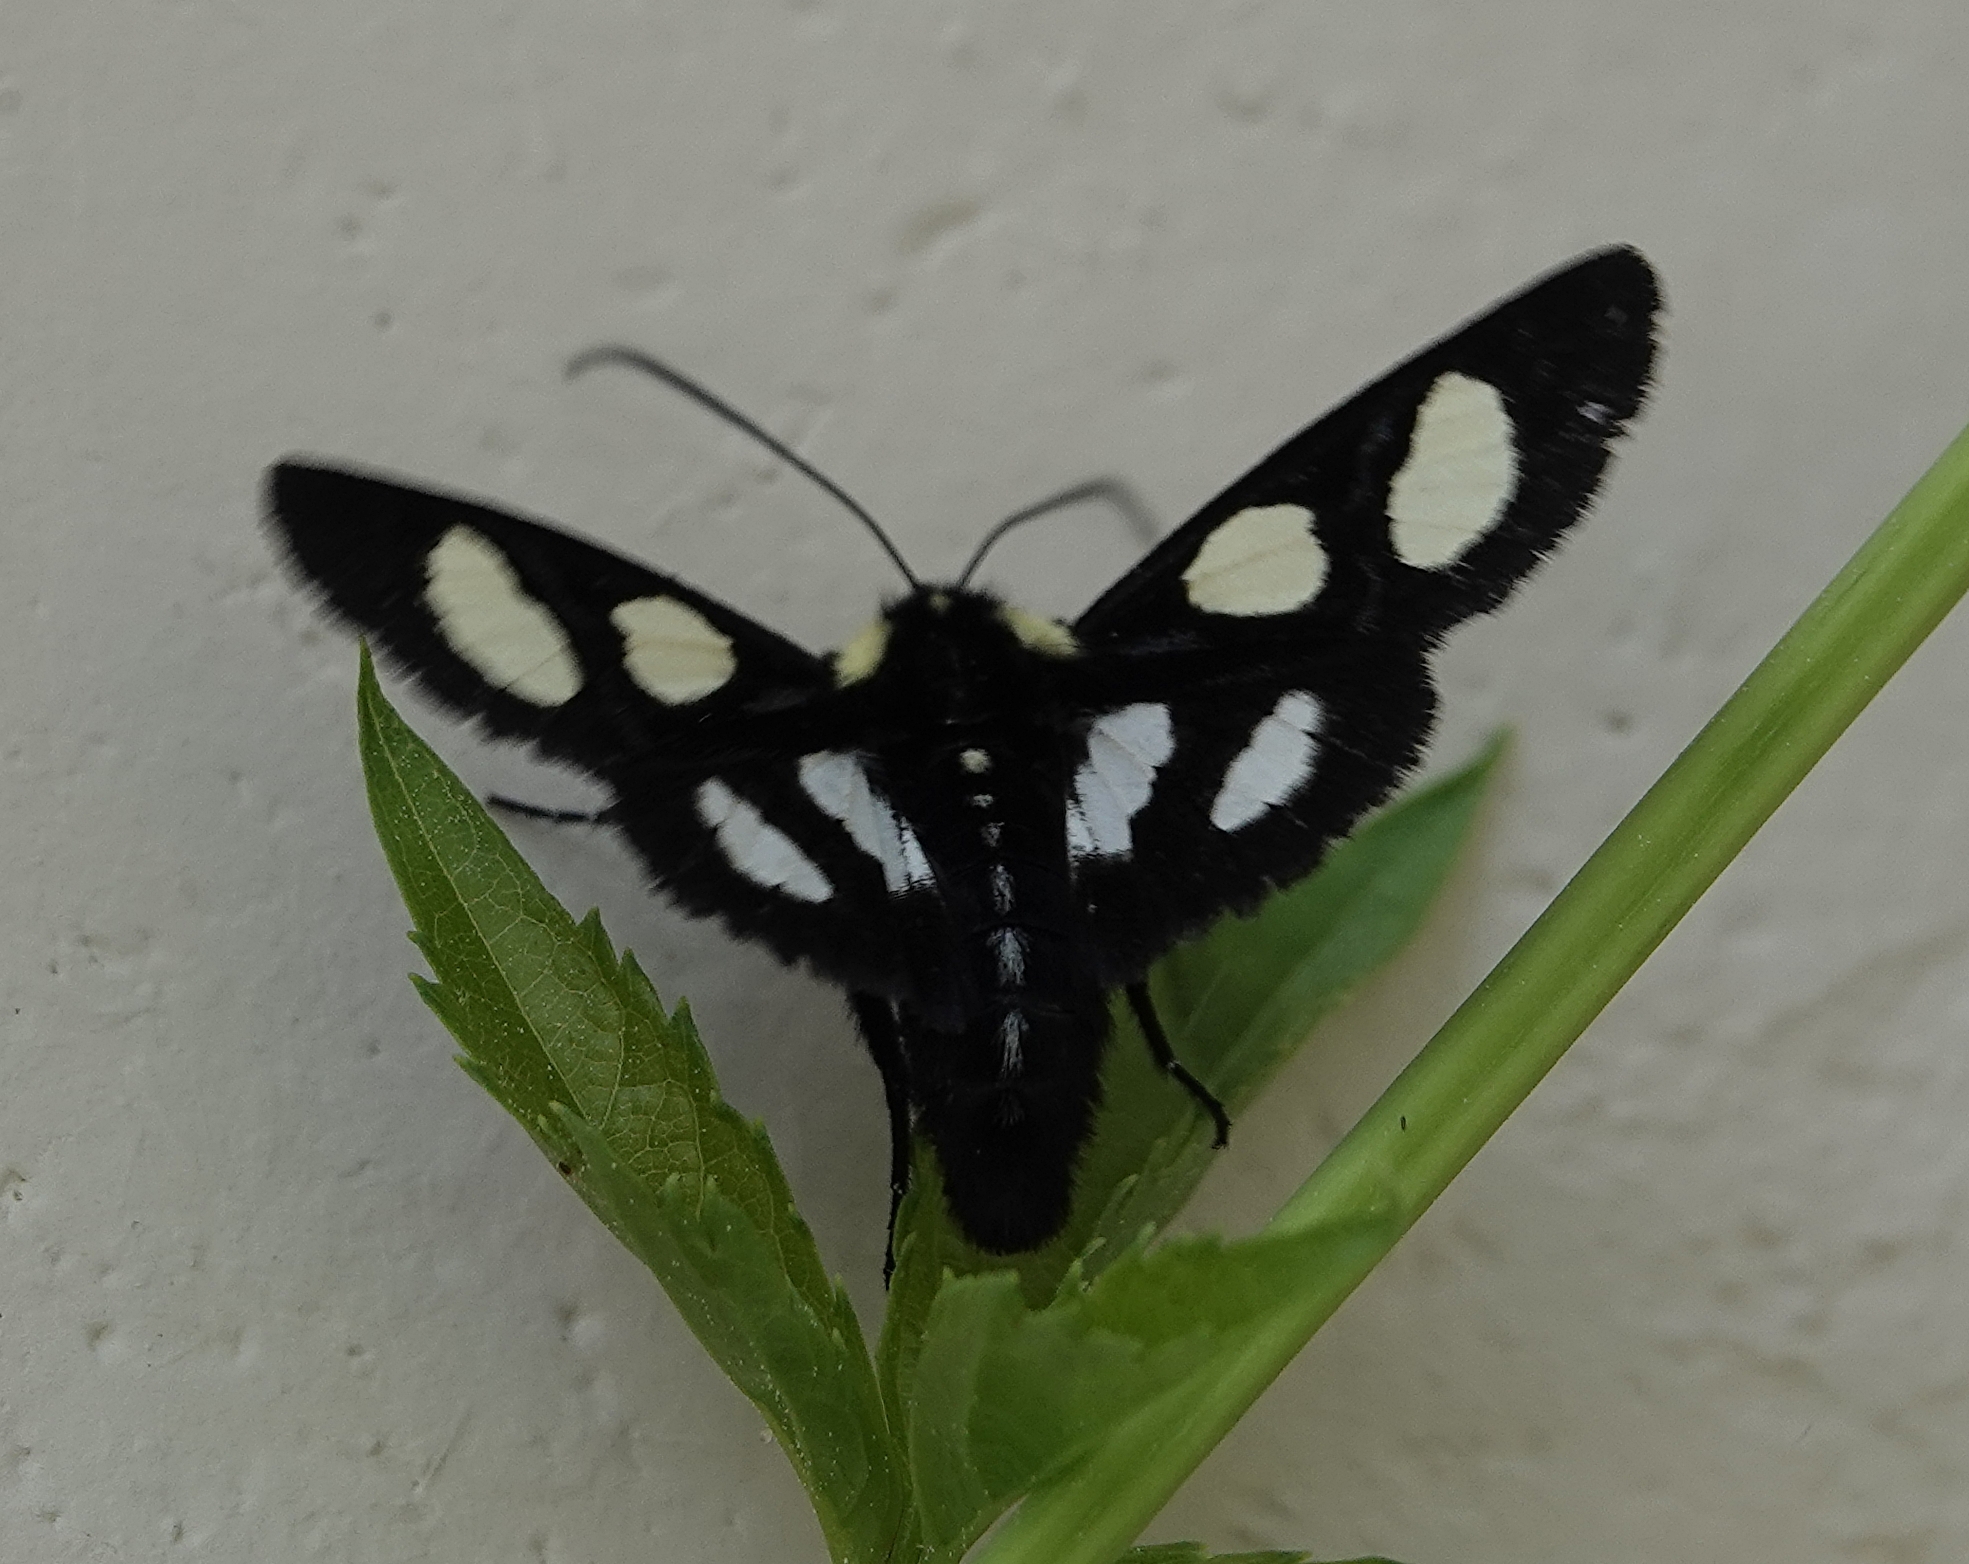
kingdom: Animalia
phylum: Arthropoda
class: Insecta
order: Lepidoptera
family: Noctuidae
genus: Alypia
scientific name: Alypia octomaculata
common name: Eight-spotted forester
